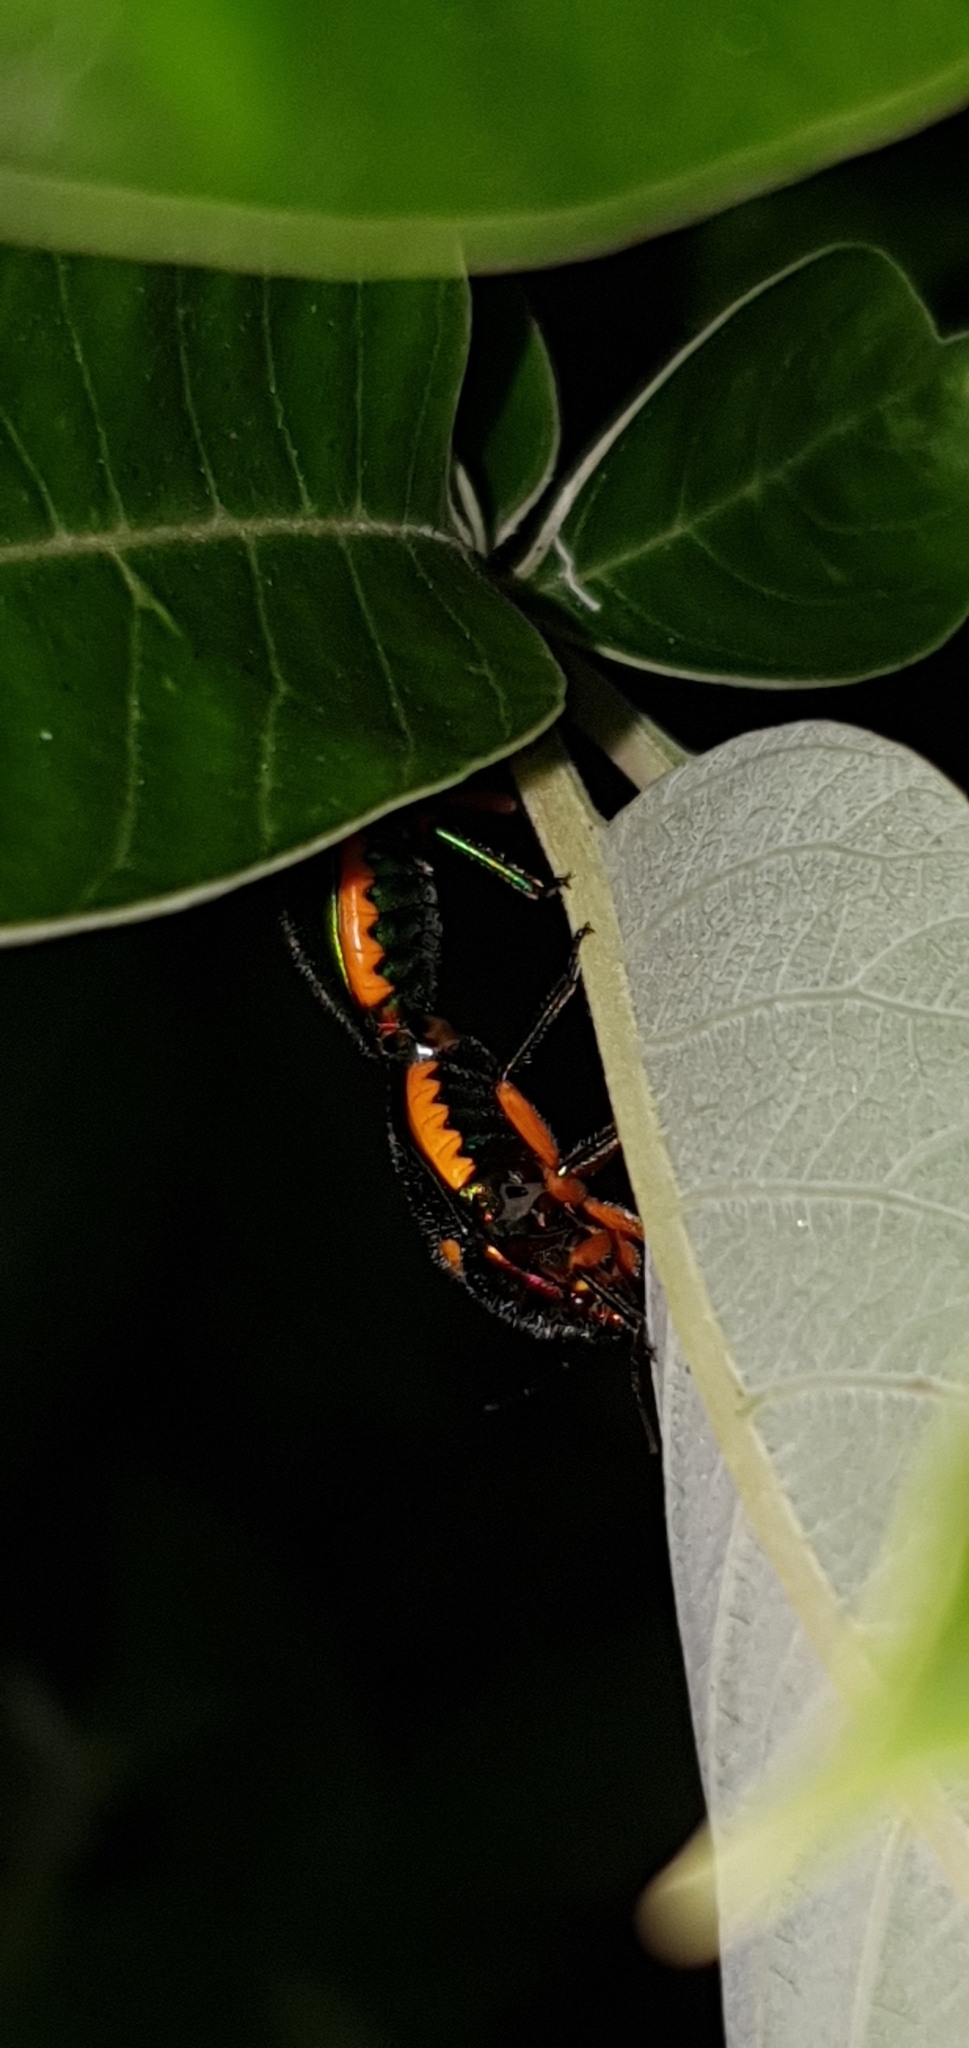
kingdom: Animalia
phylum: Arthropoda
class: Insecta
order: Hemiptera
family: Scutelleridae
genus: Lampromicra
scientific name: Lampromicra senator
